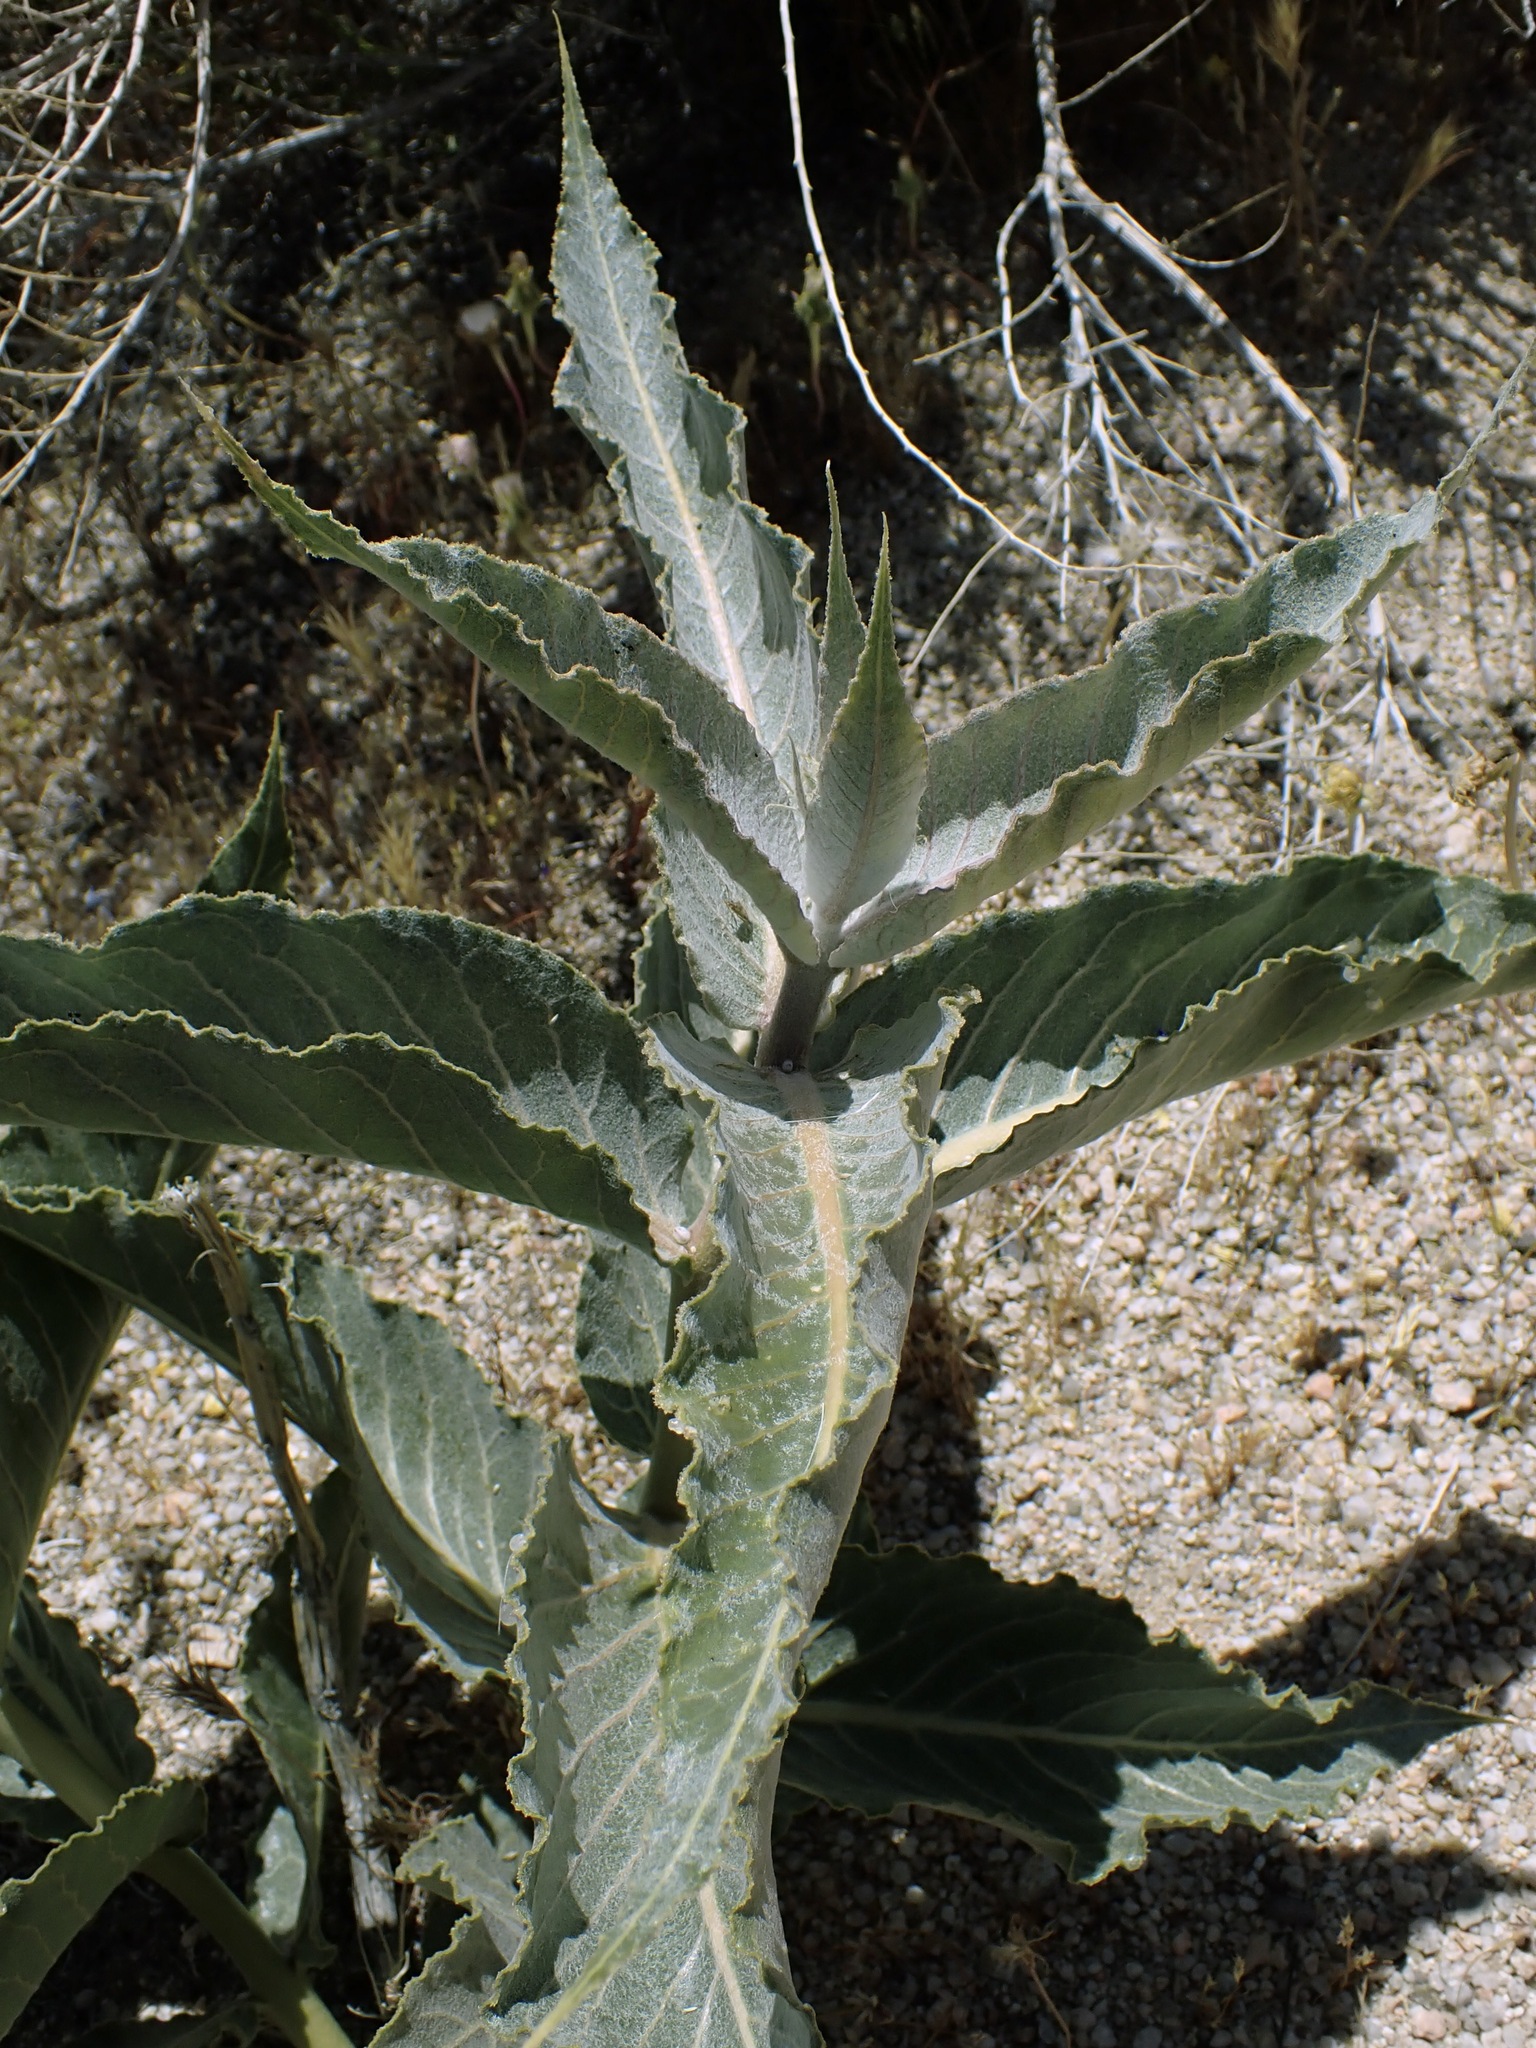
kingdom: Plantae
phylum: Tracheophyta
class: Magnoliopsida
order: Gentianales
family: Apocynaceae
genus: Asclepias
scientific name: Asclepias erosa
